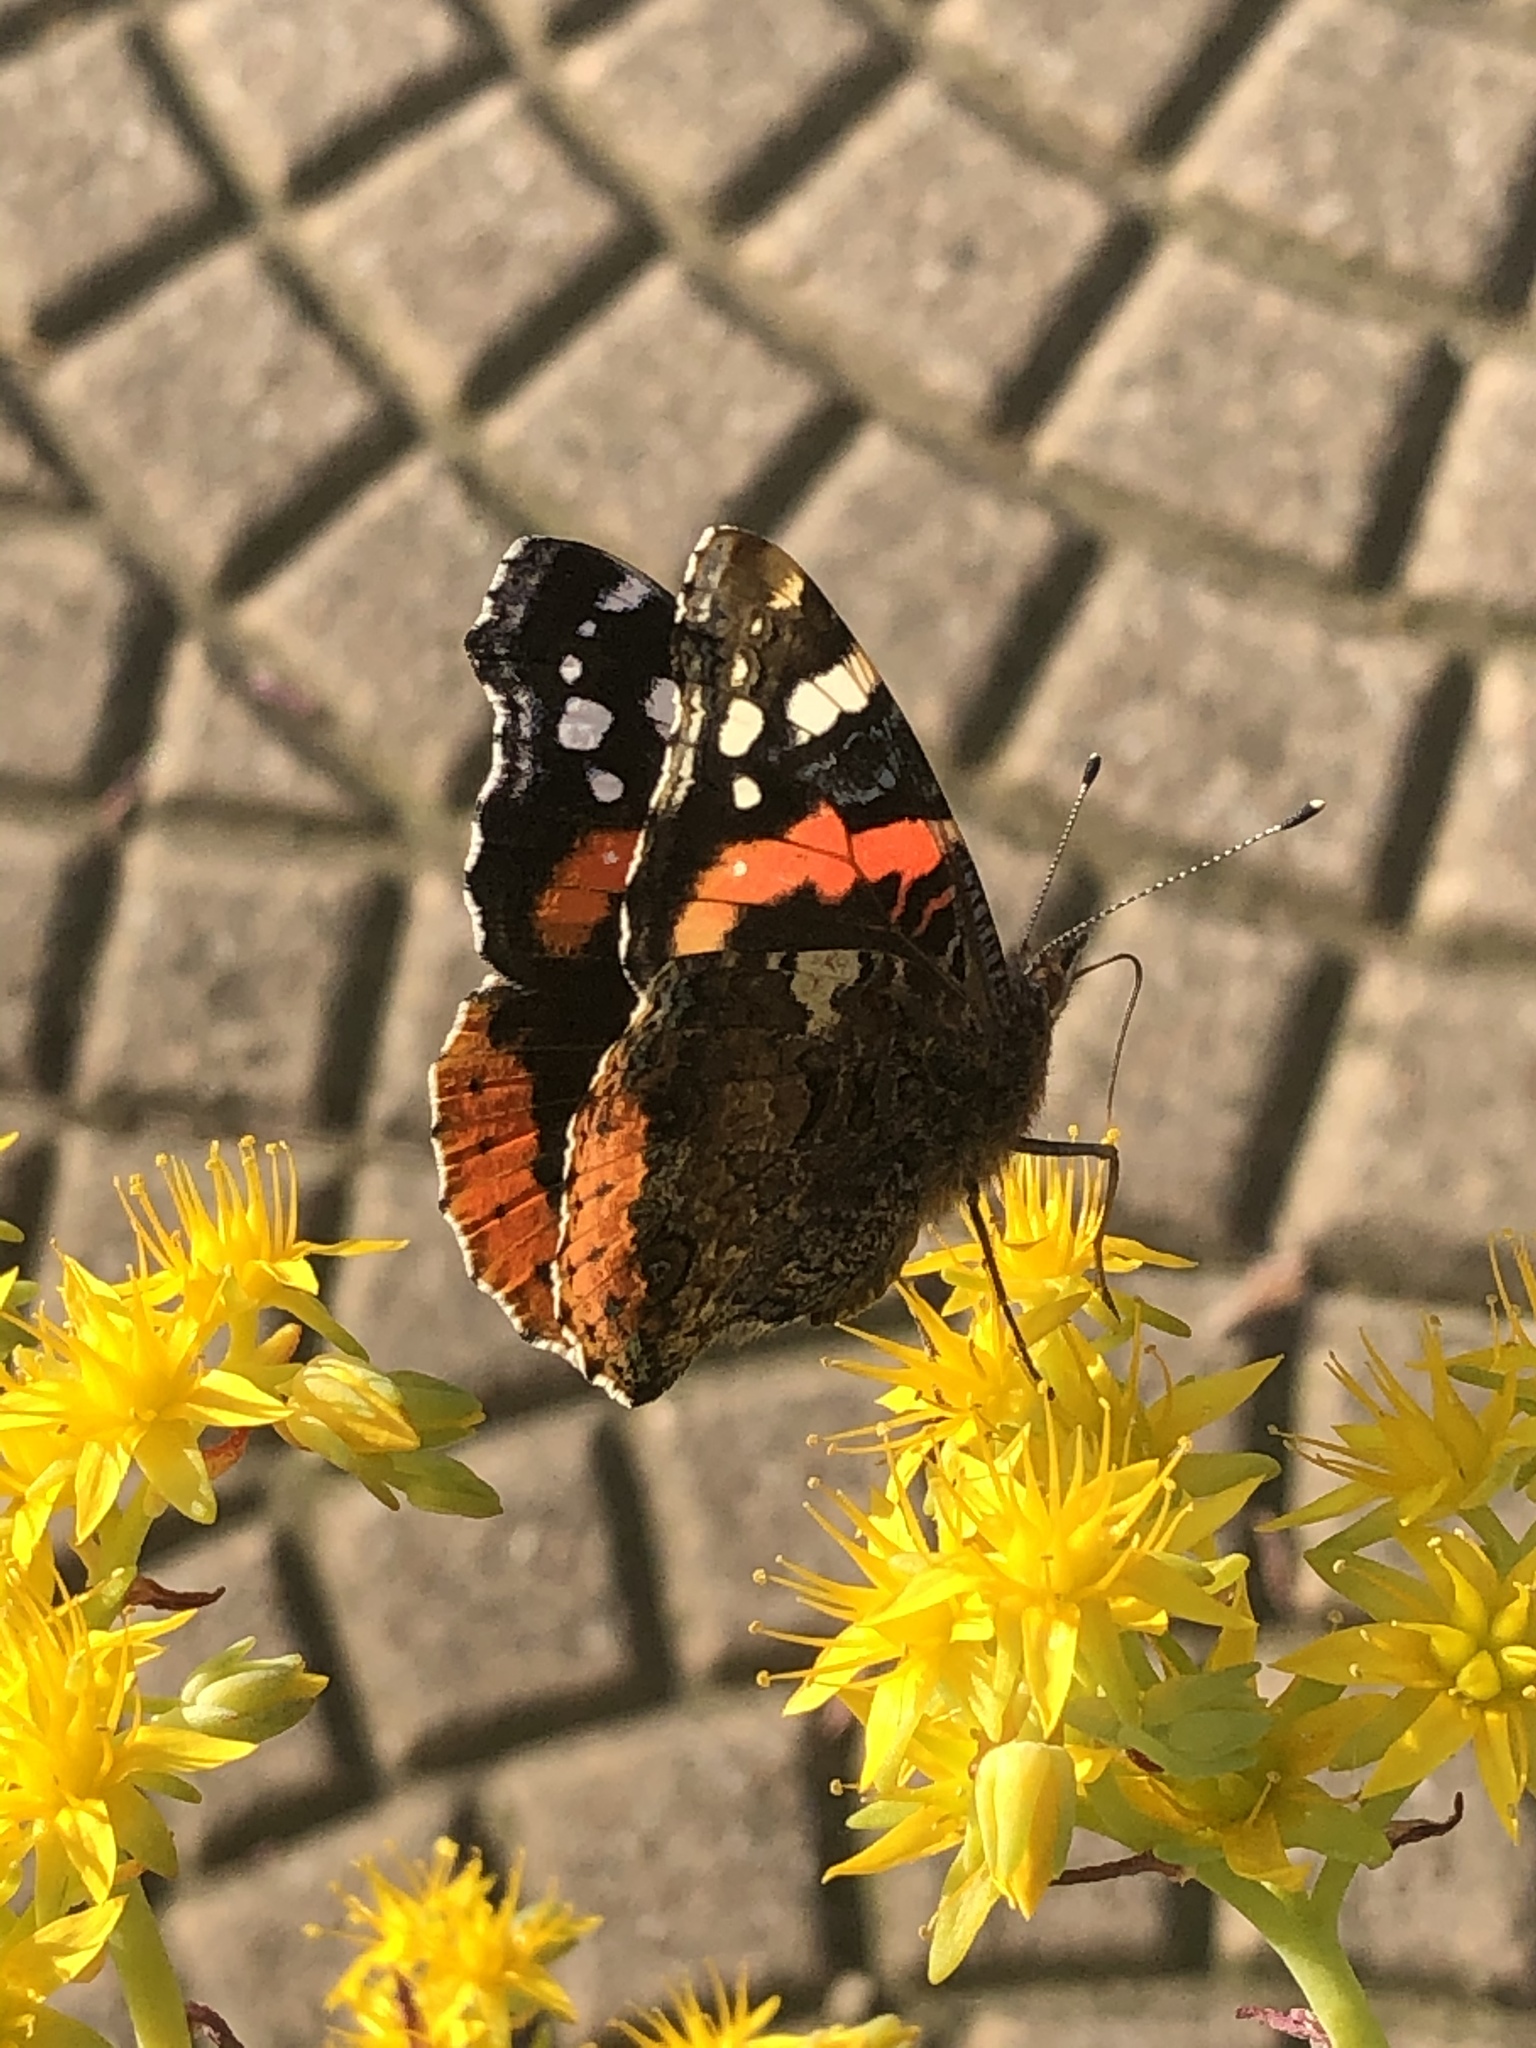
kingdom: Animalia
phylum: Arthropoda
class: Insecta
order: Lepidoptera
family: Nymphalidae
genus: Vanessa
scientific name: Vanessa atalanta
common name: Red admiral
